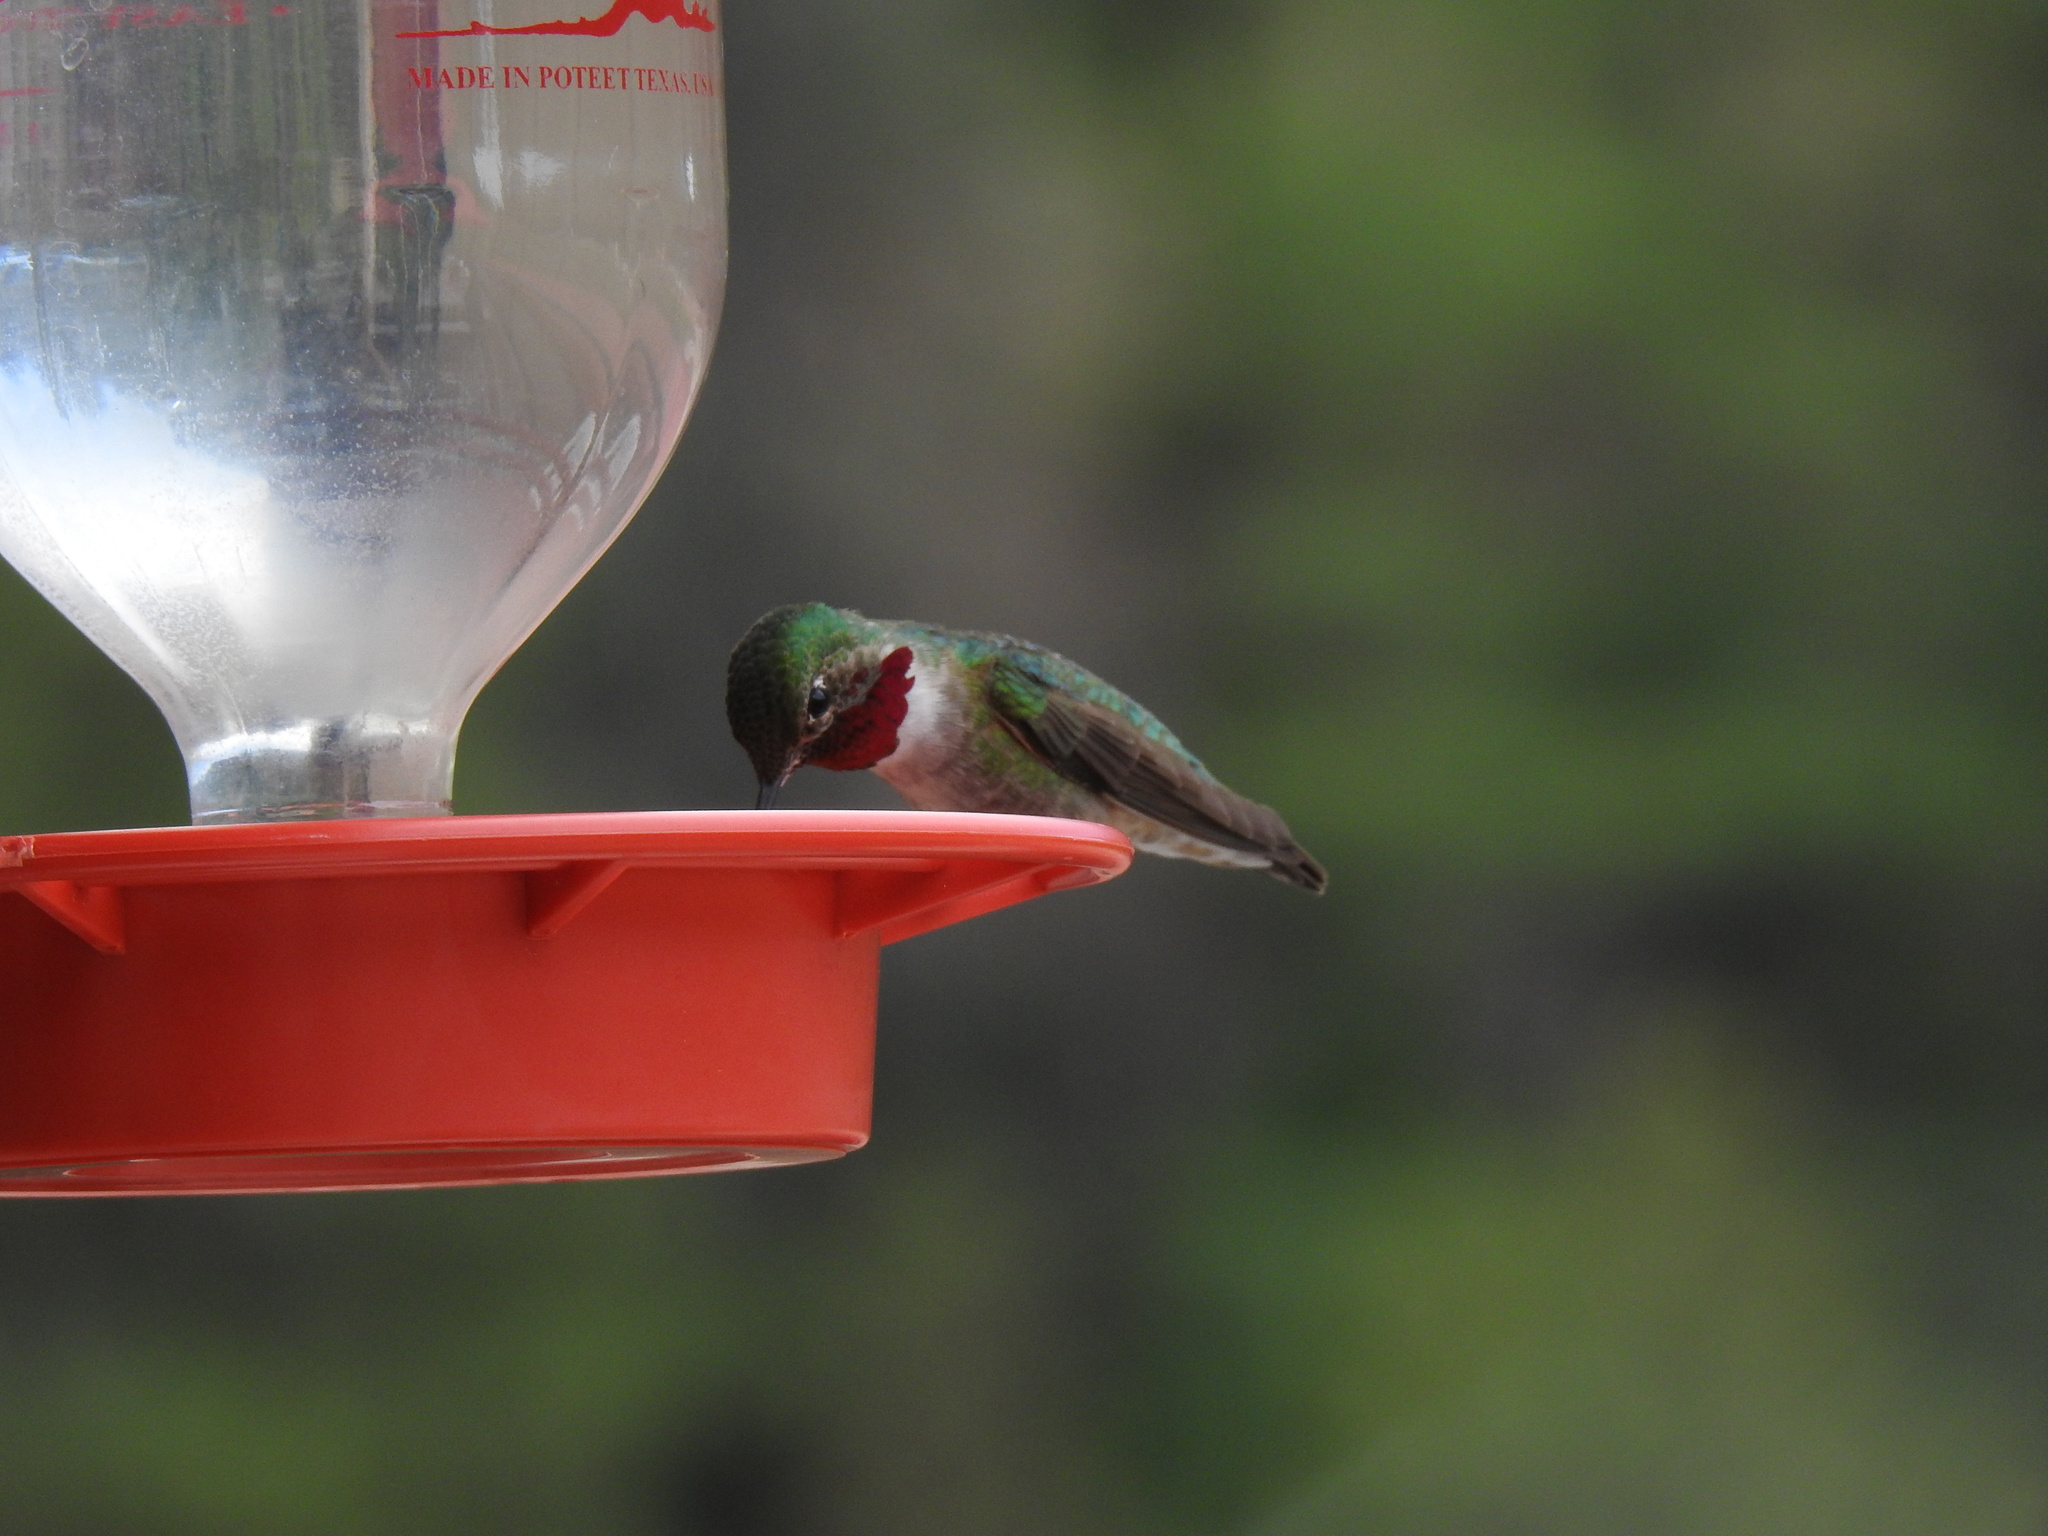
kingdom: Animalia
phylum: Chordata
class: Aves
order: Apodiformes
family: Trochilidae
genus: Selasphorus
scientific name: Selasphorus platycercus
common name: Broad-tailed hummingbird
